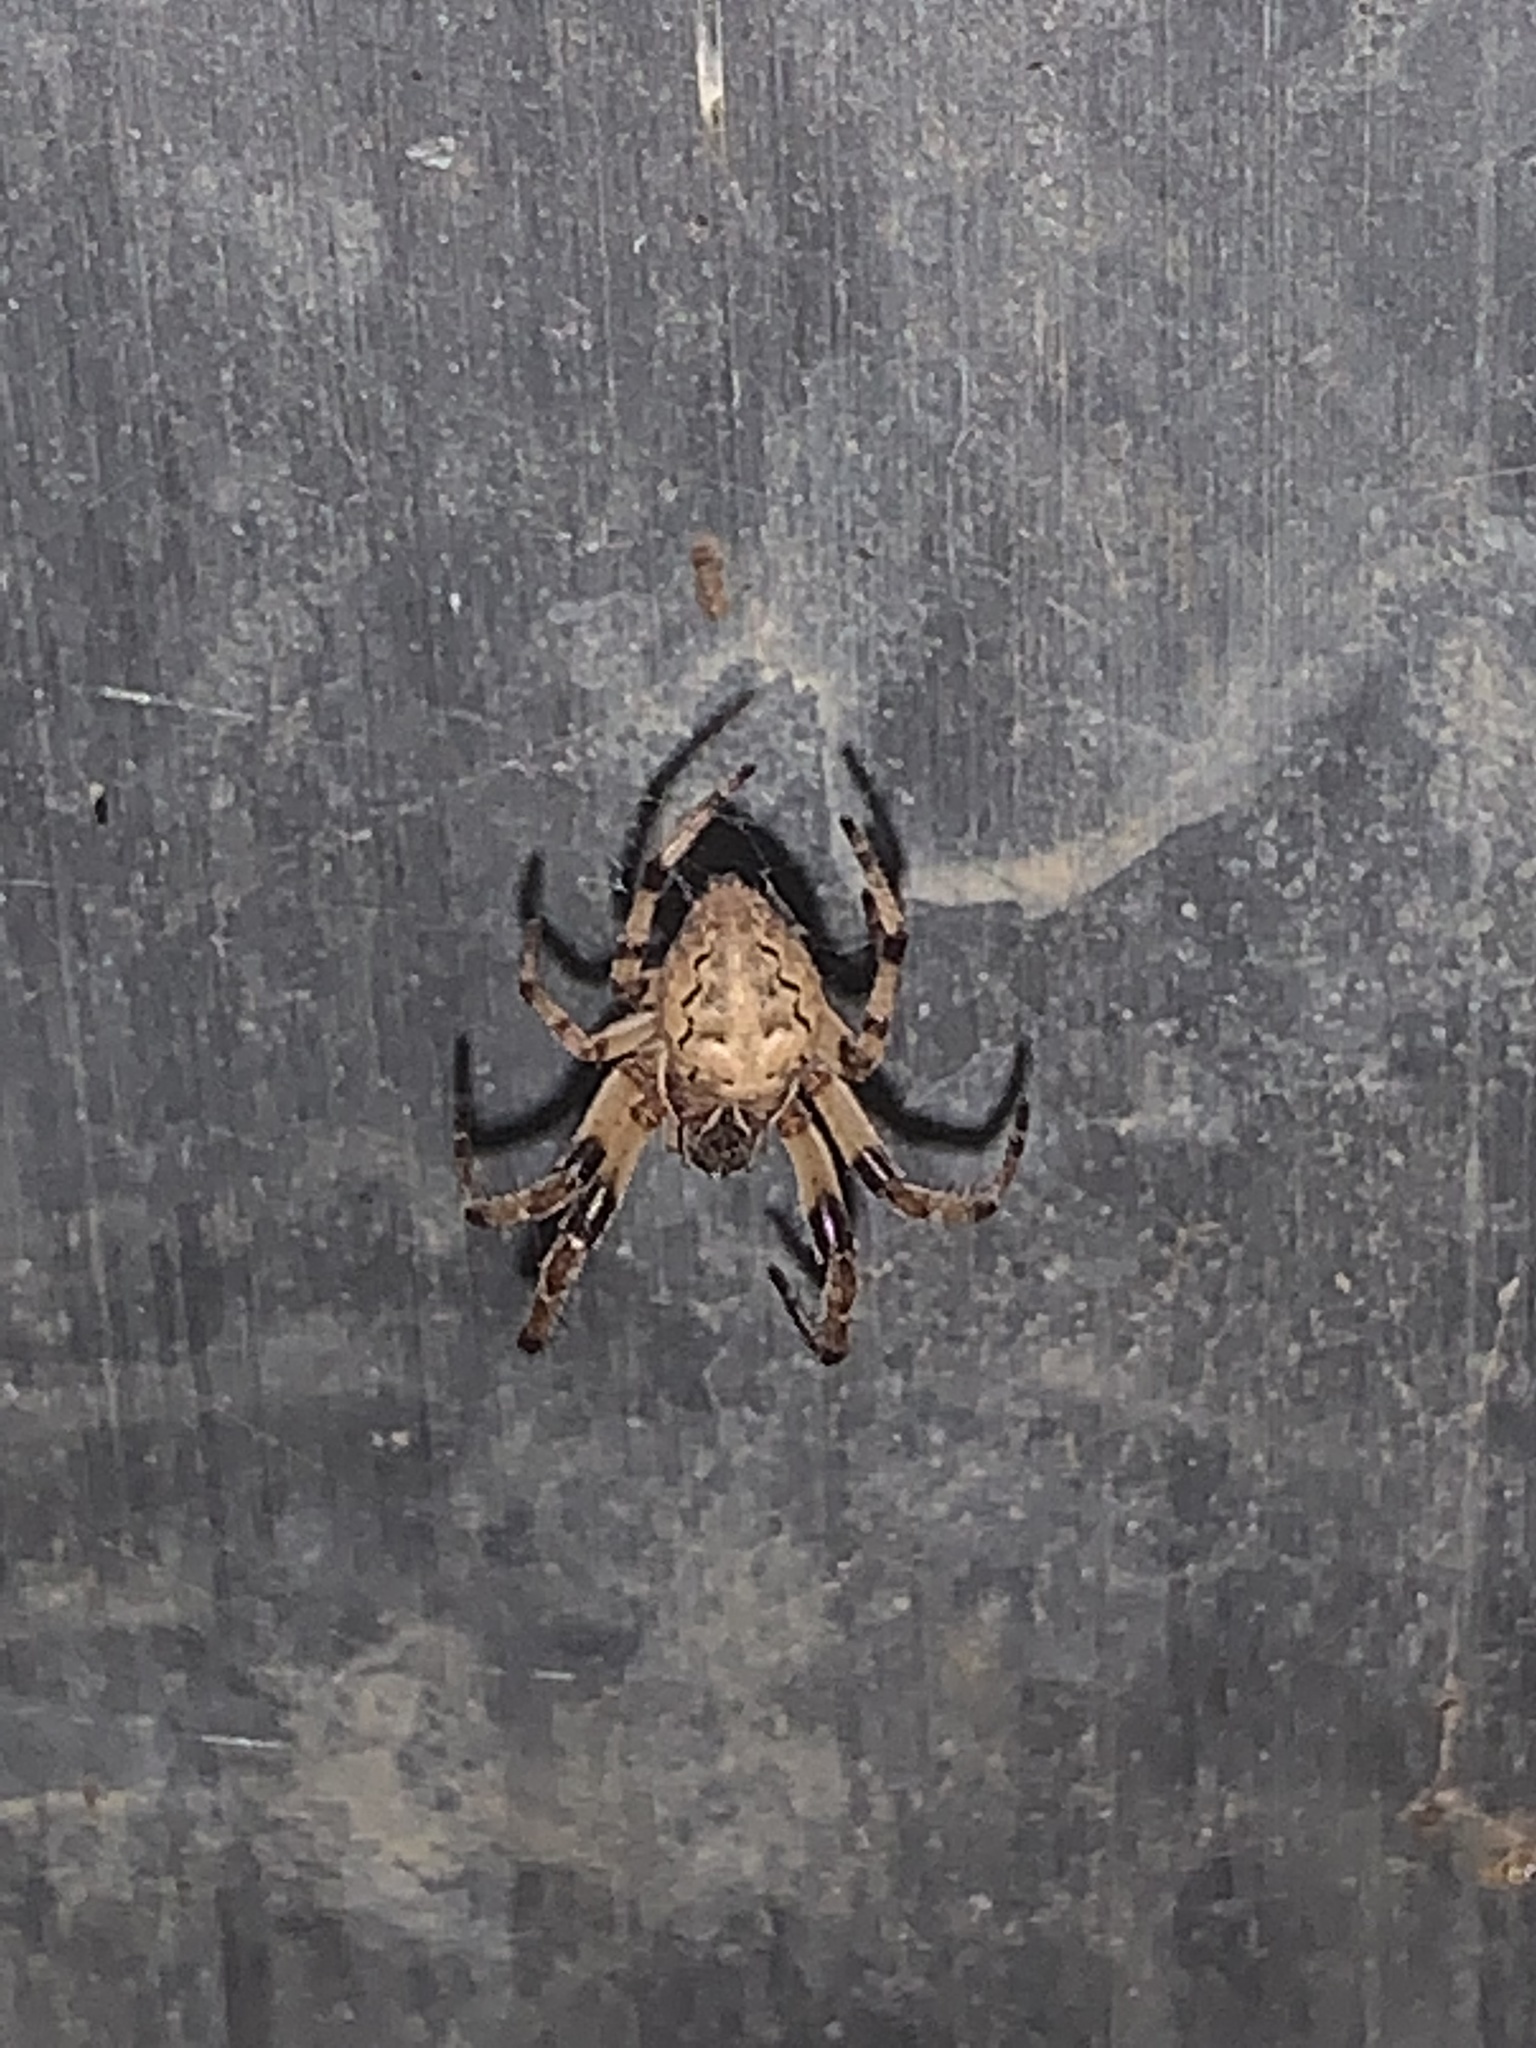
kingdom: Animalia
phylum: Arthropoda
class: Arachnida
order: Araneae
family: Araneidae
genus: Larinioides
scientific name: Larinioides cornutus
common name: Furrow orbweaver
